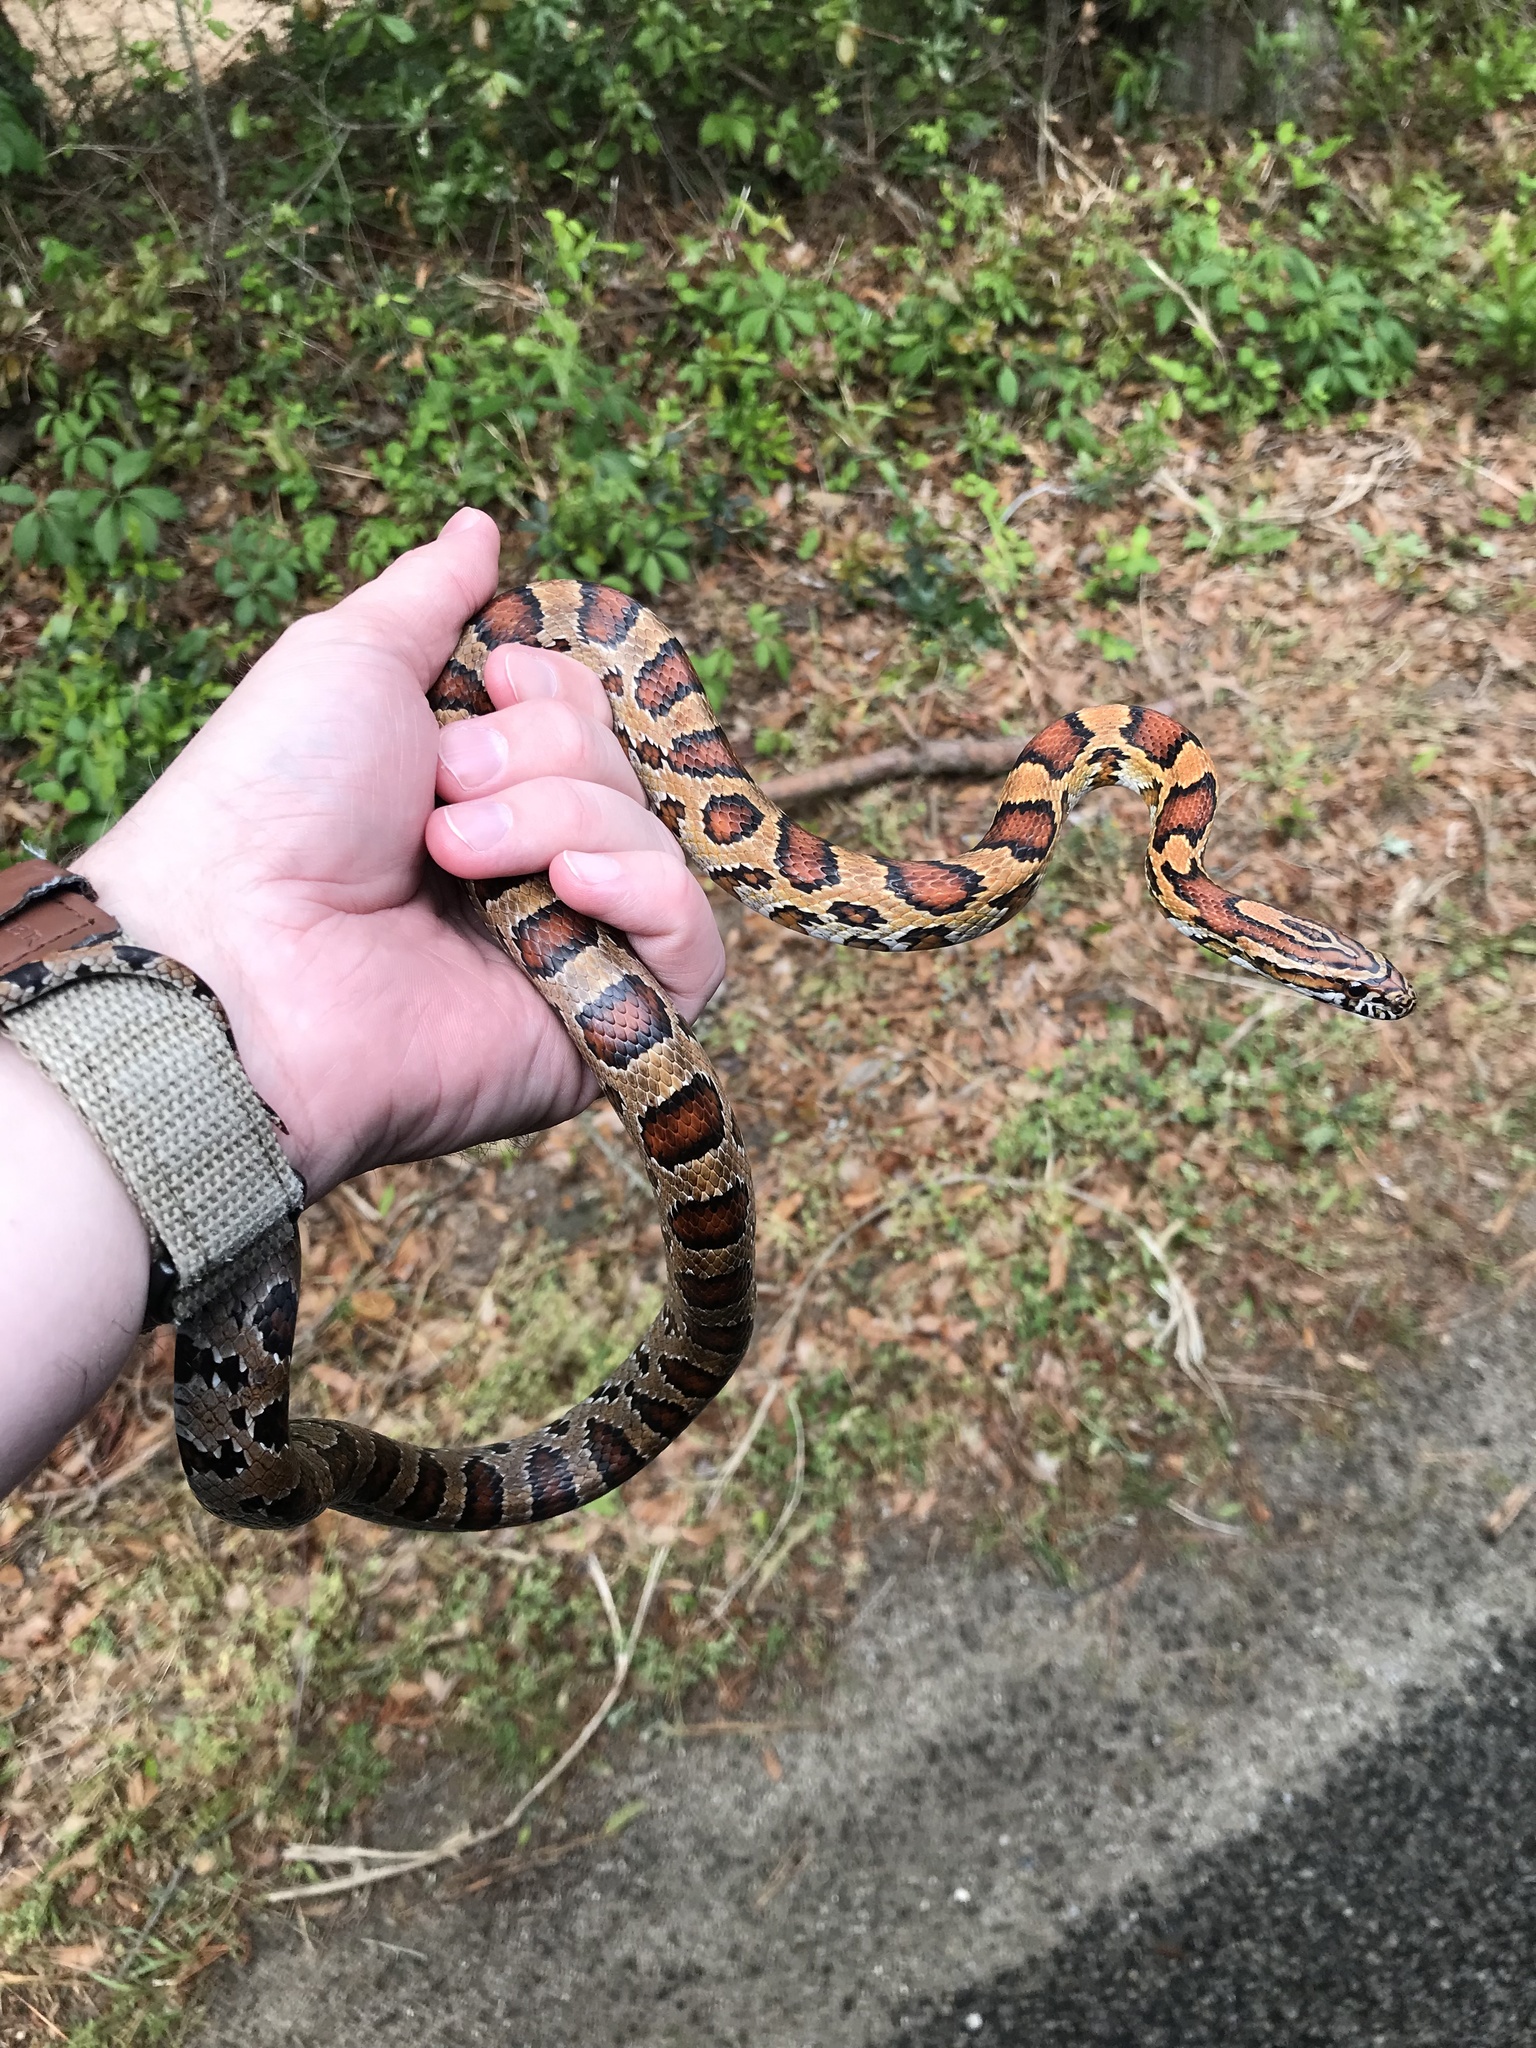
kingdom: Animalia
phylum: Chordata
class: Squamata
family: Colubridae
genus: Pantherophis
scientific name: Pantherophis guttatus
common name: Red cornsnake
